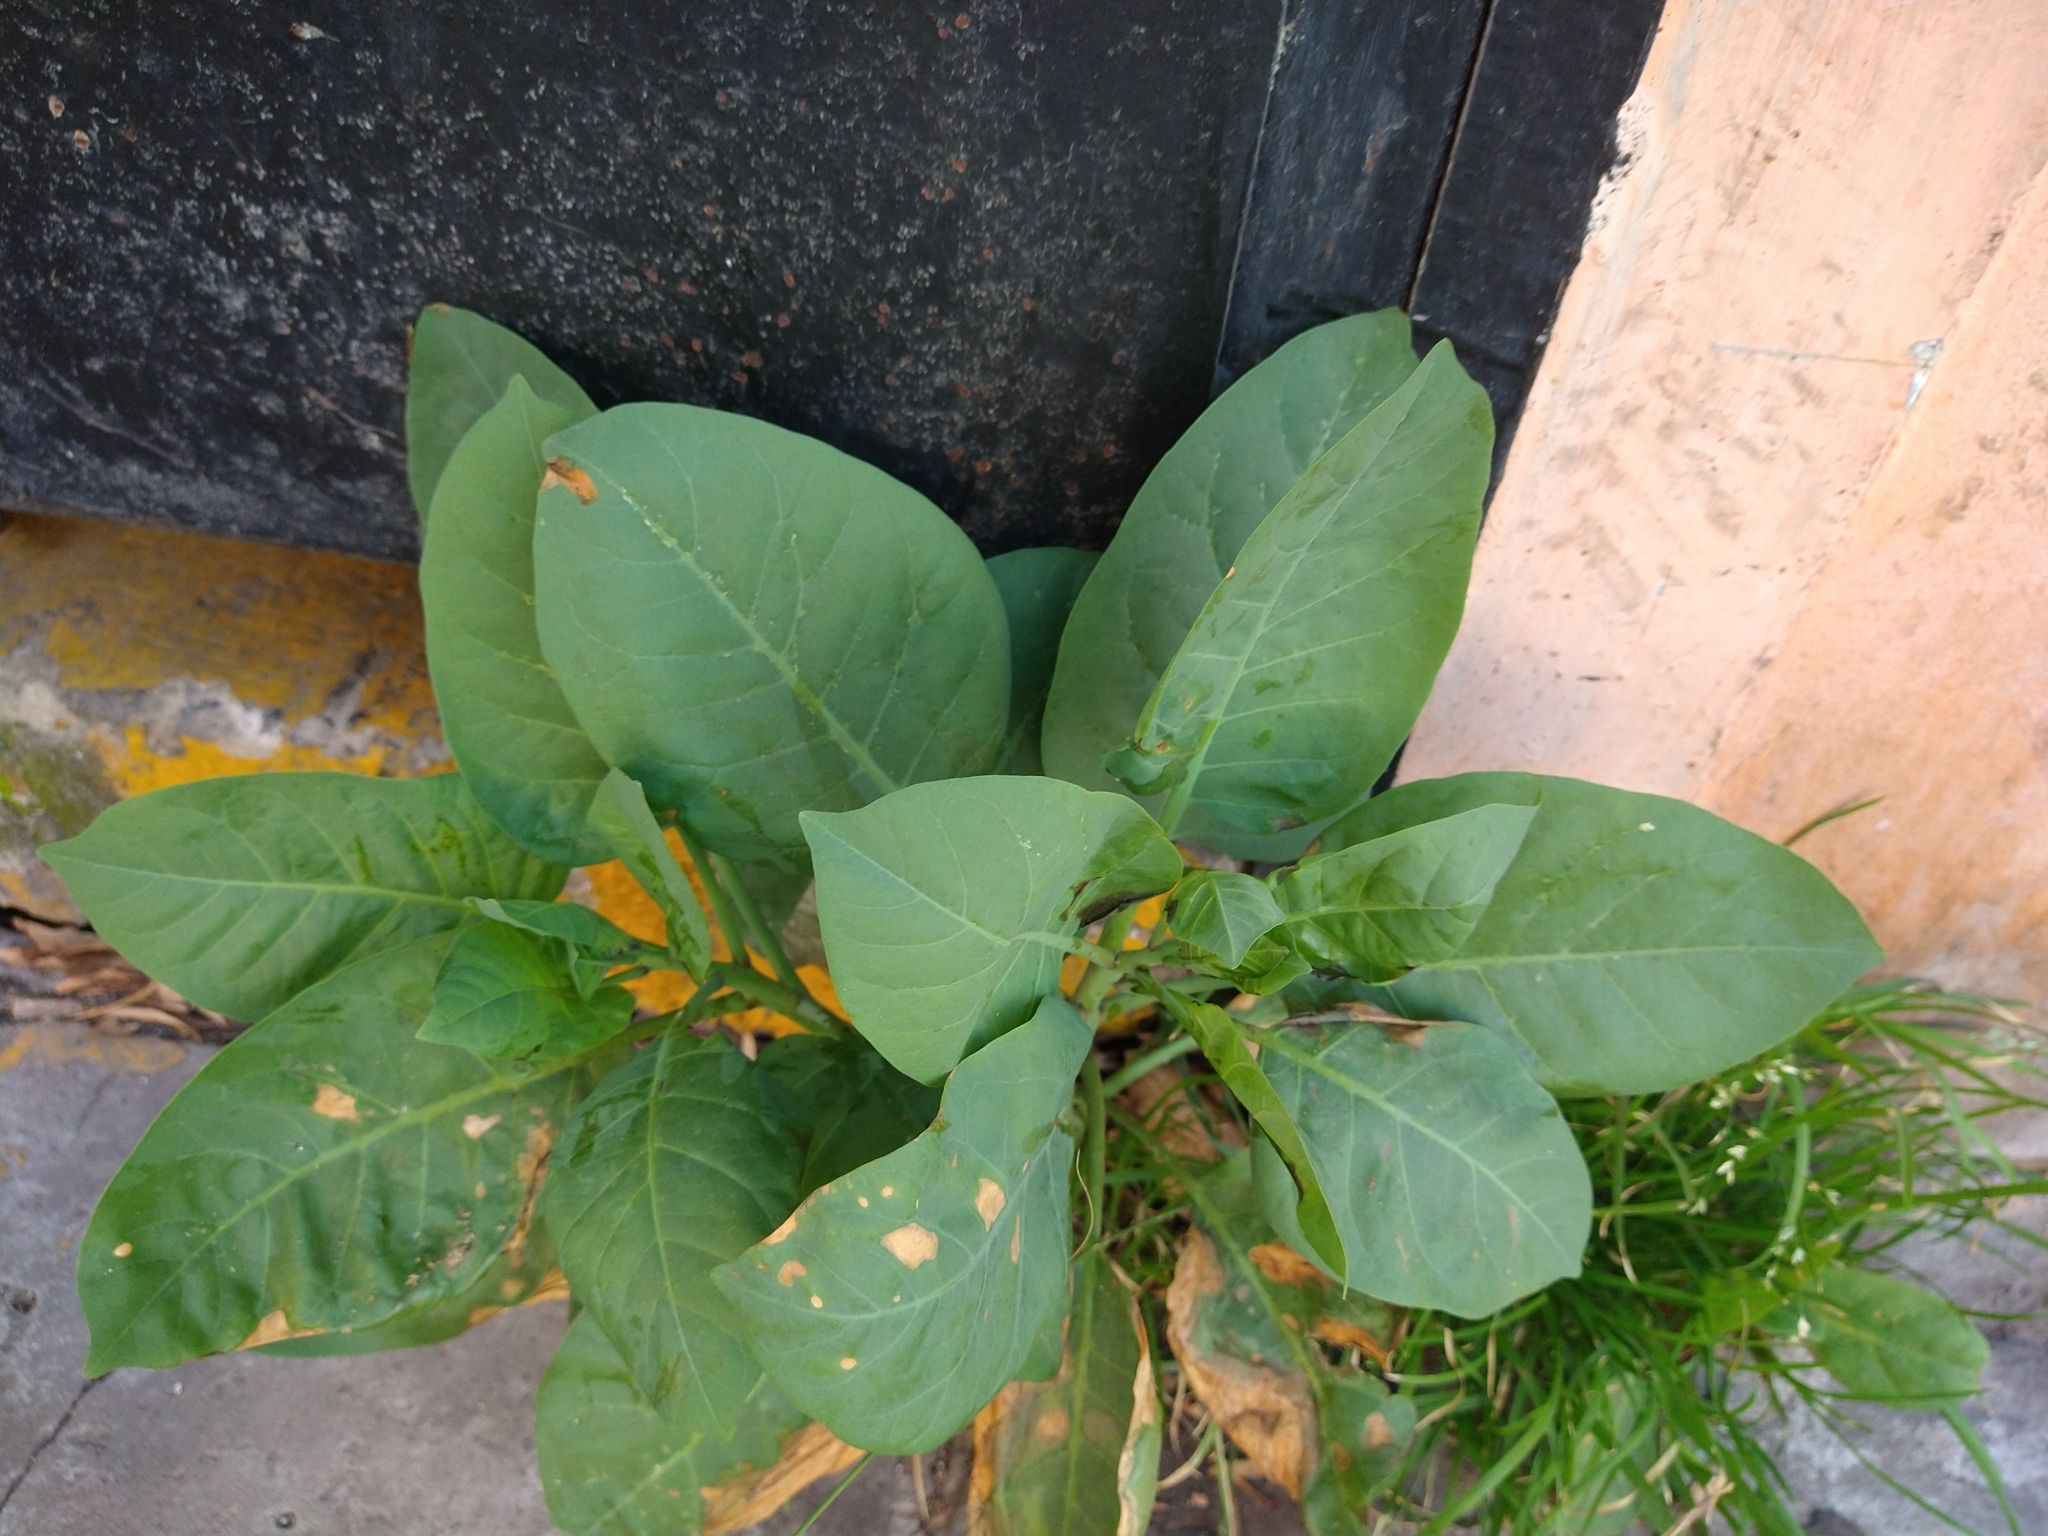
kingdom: Plantae
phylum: Tracheophyta
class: Magnoliopsida
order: Solanales
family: Solanaceae
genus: Nicotiana
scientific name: Nicotiana glauca
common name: Tree tobacco
